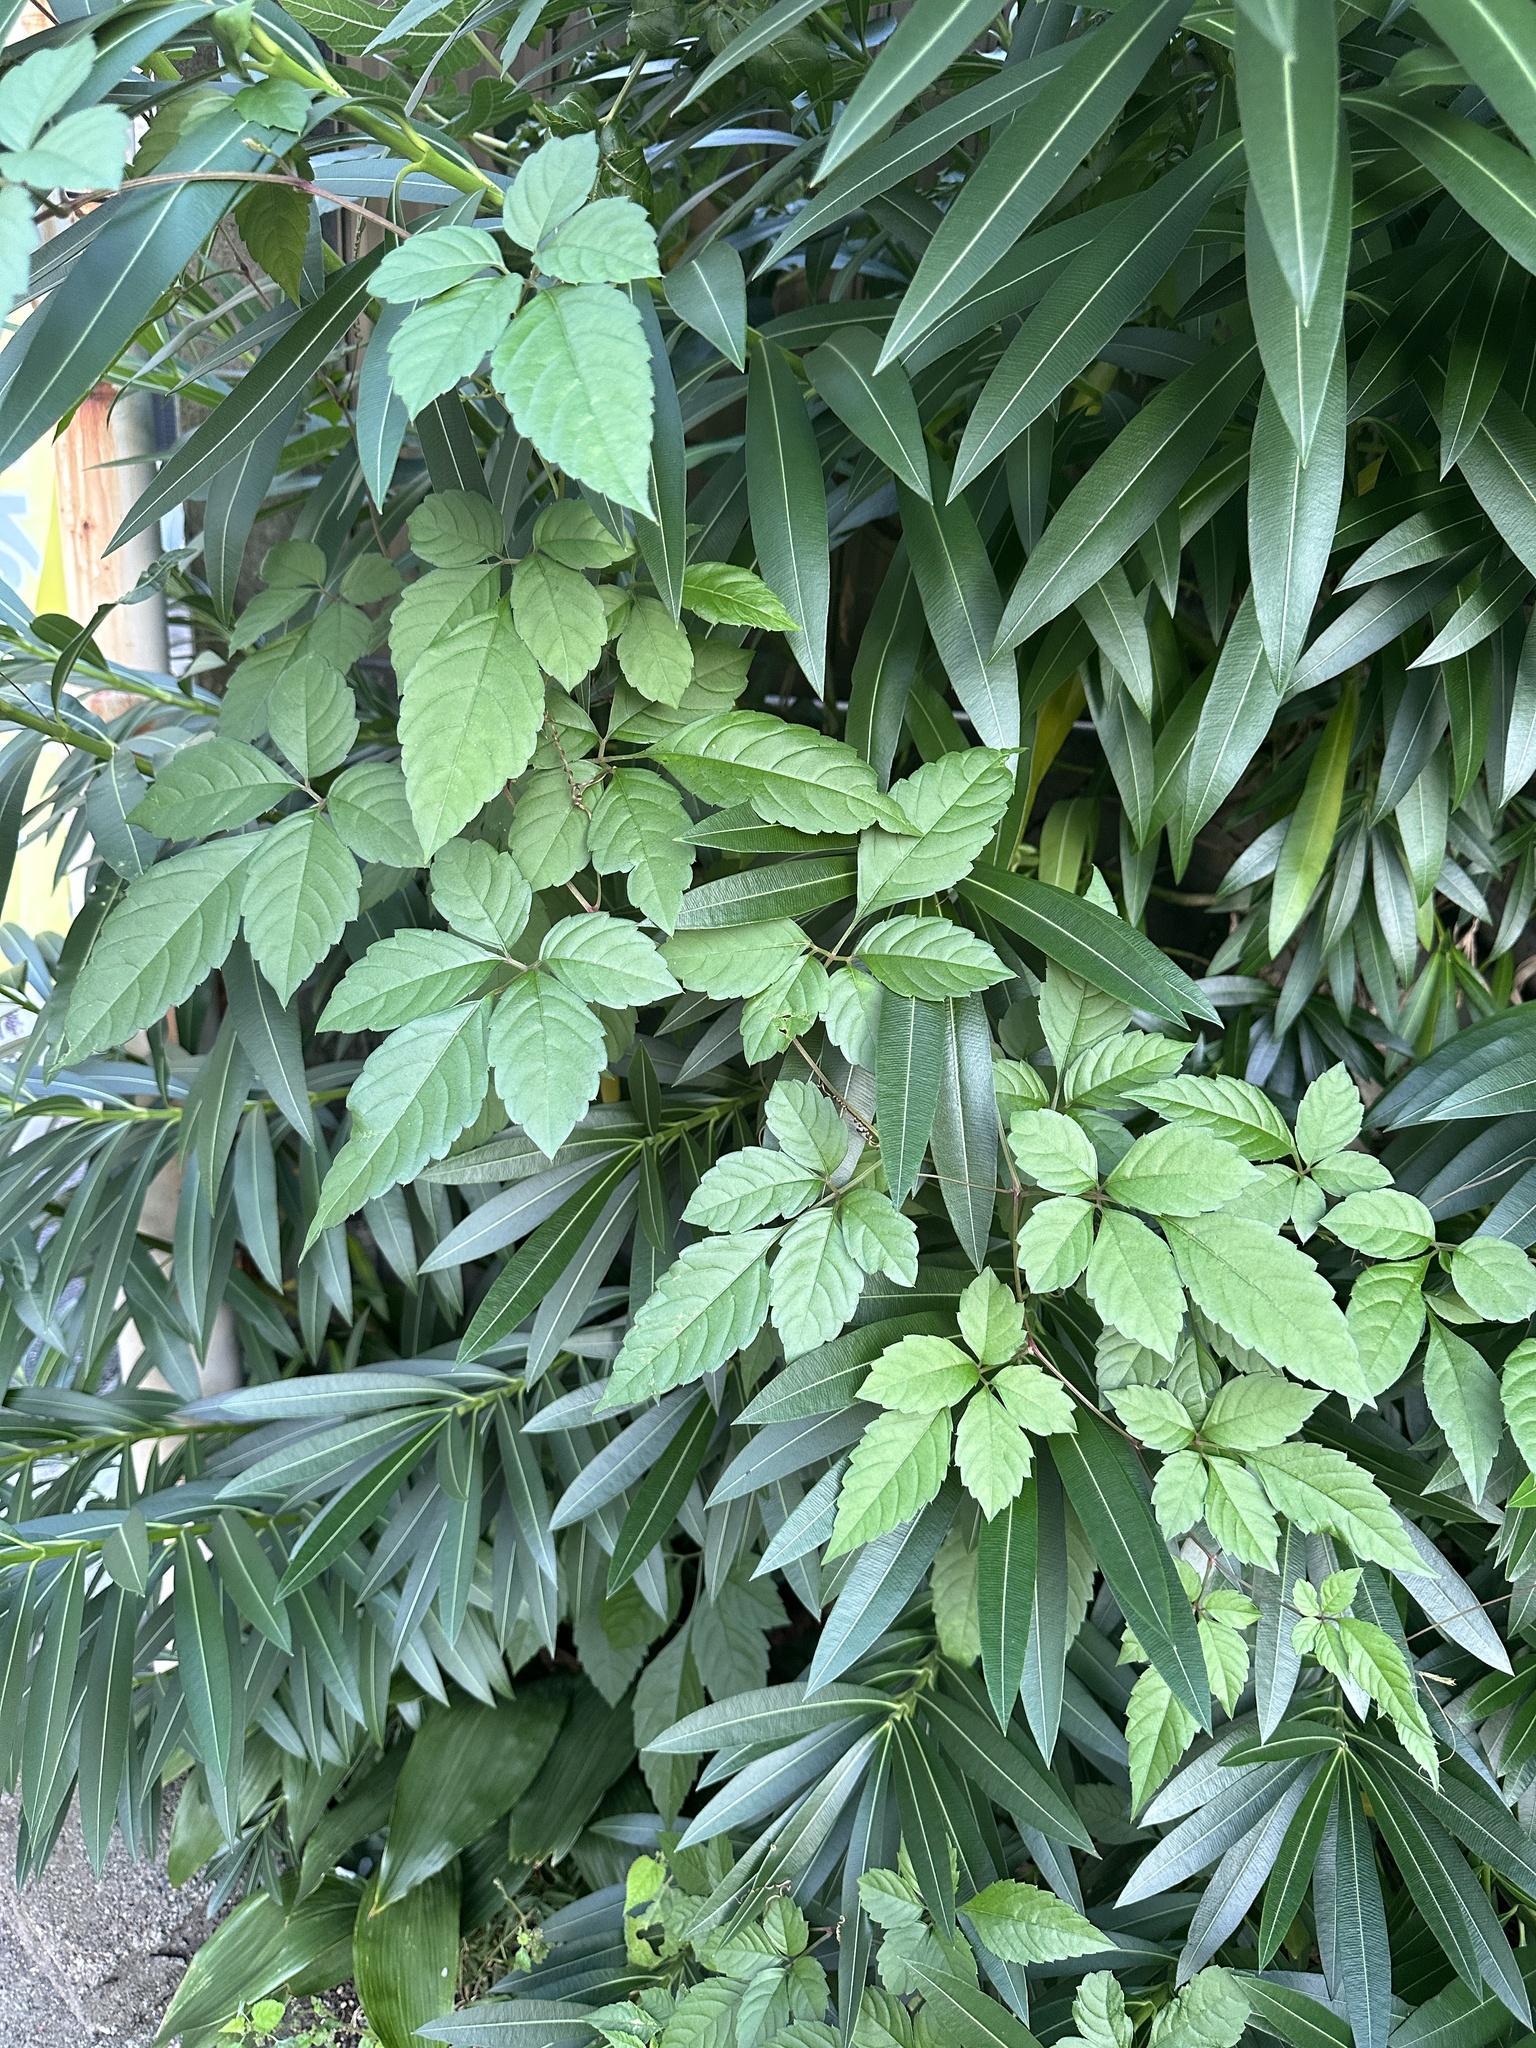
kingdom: Plantae
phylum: Tracheophyta
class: Magnoliopsida
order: Vitales
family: Vitaceae
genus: Causonis
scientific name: Causonis japonica
